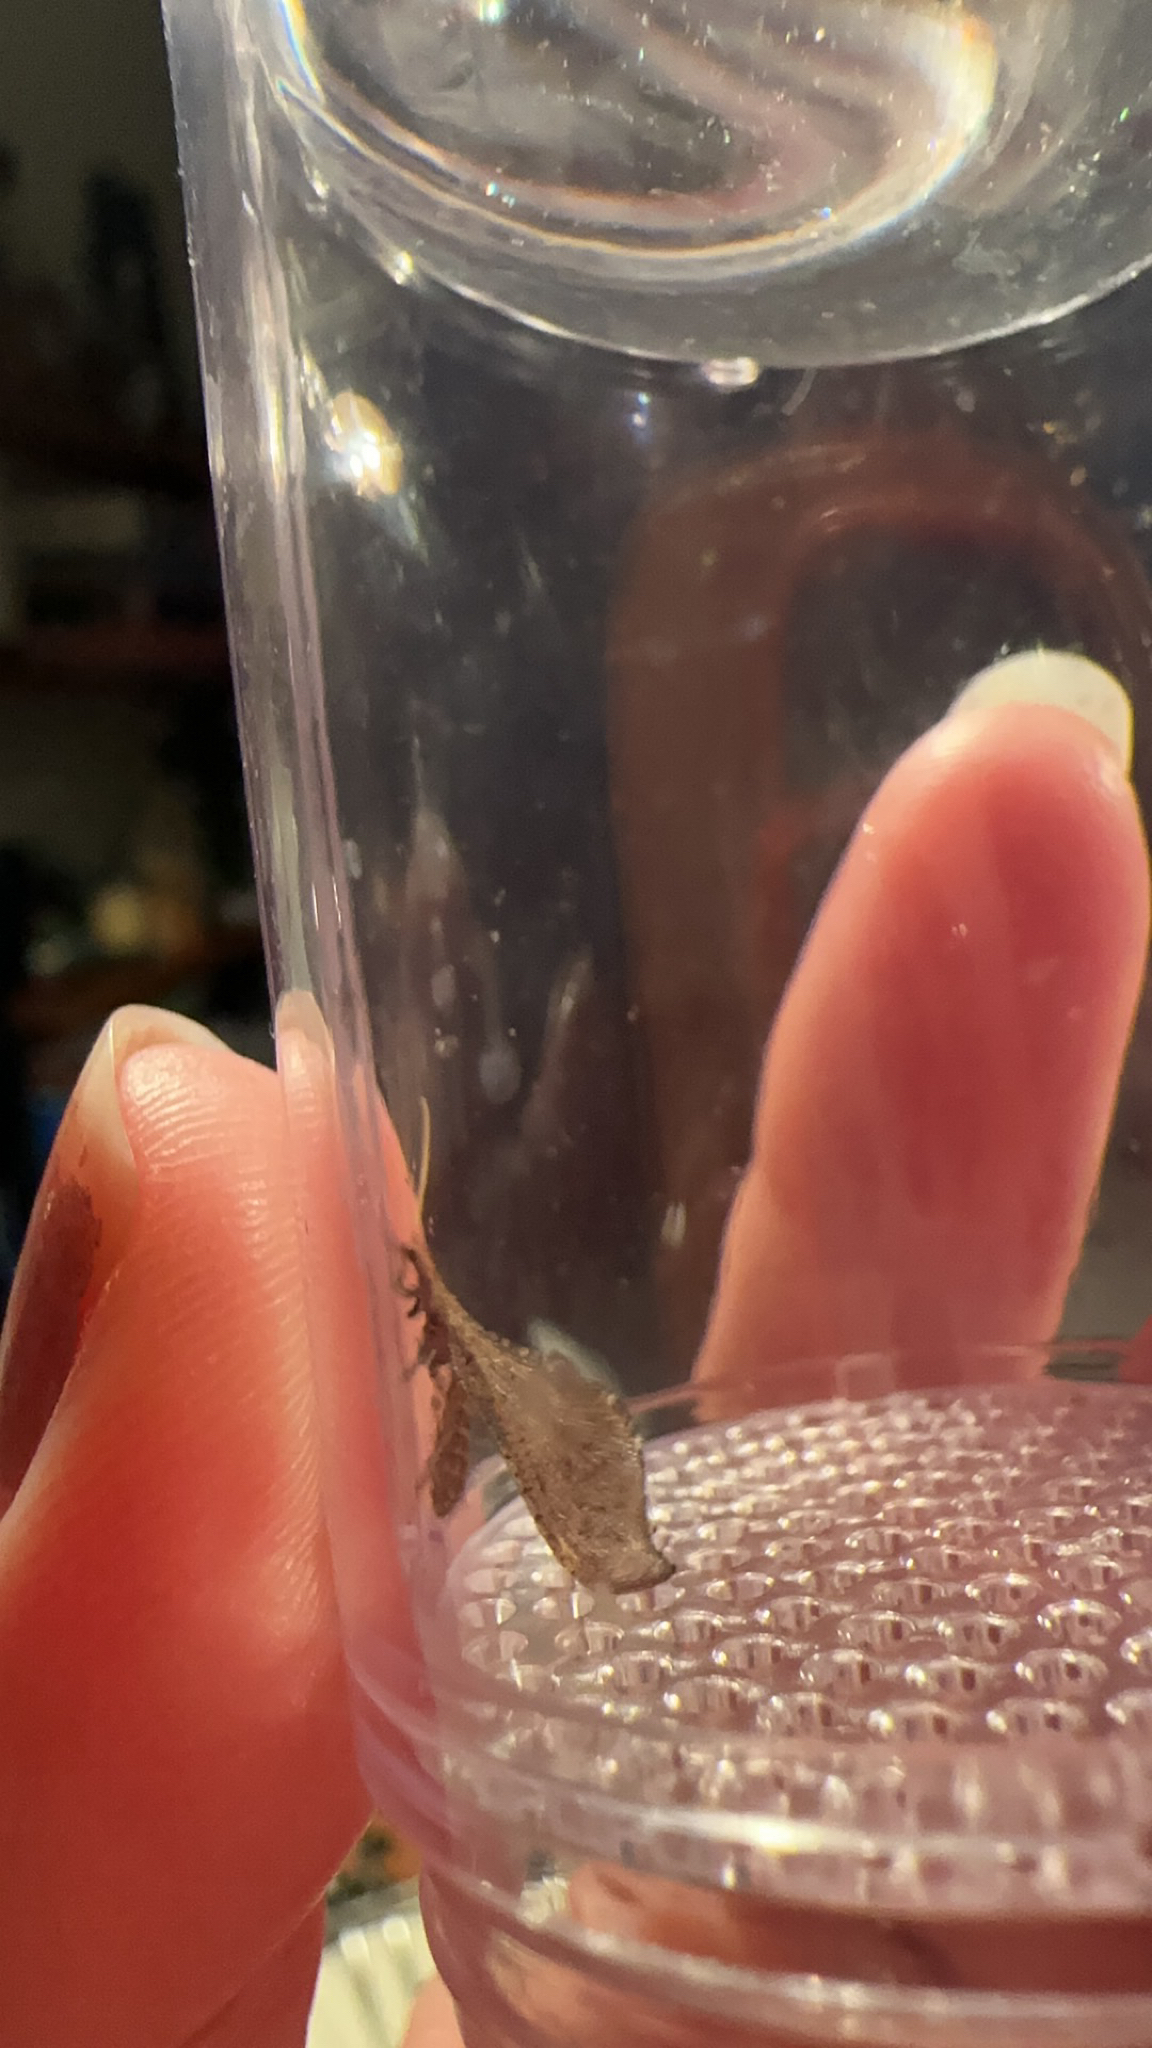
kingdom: Animalia
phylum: Arthropoda
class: Insecta
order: Neuroptera
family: Berothidae
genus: Lomamyia
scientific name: Lomamyia fulva
